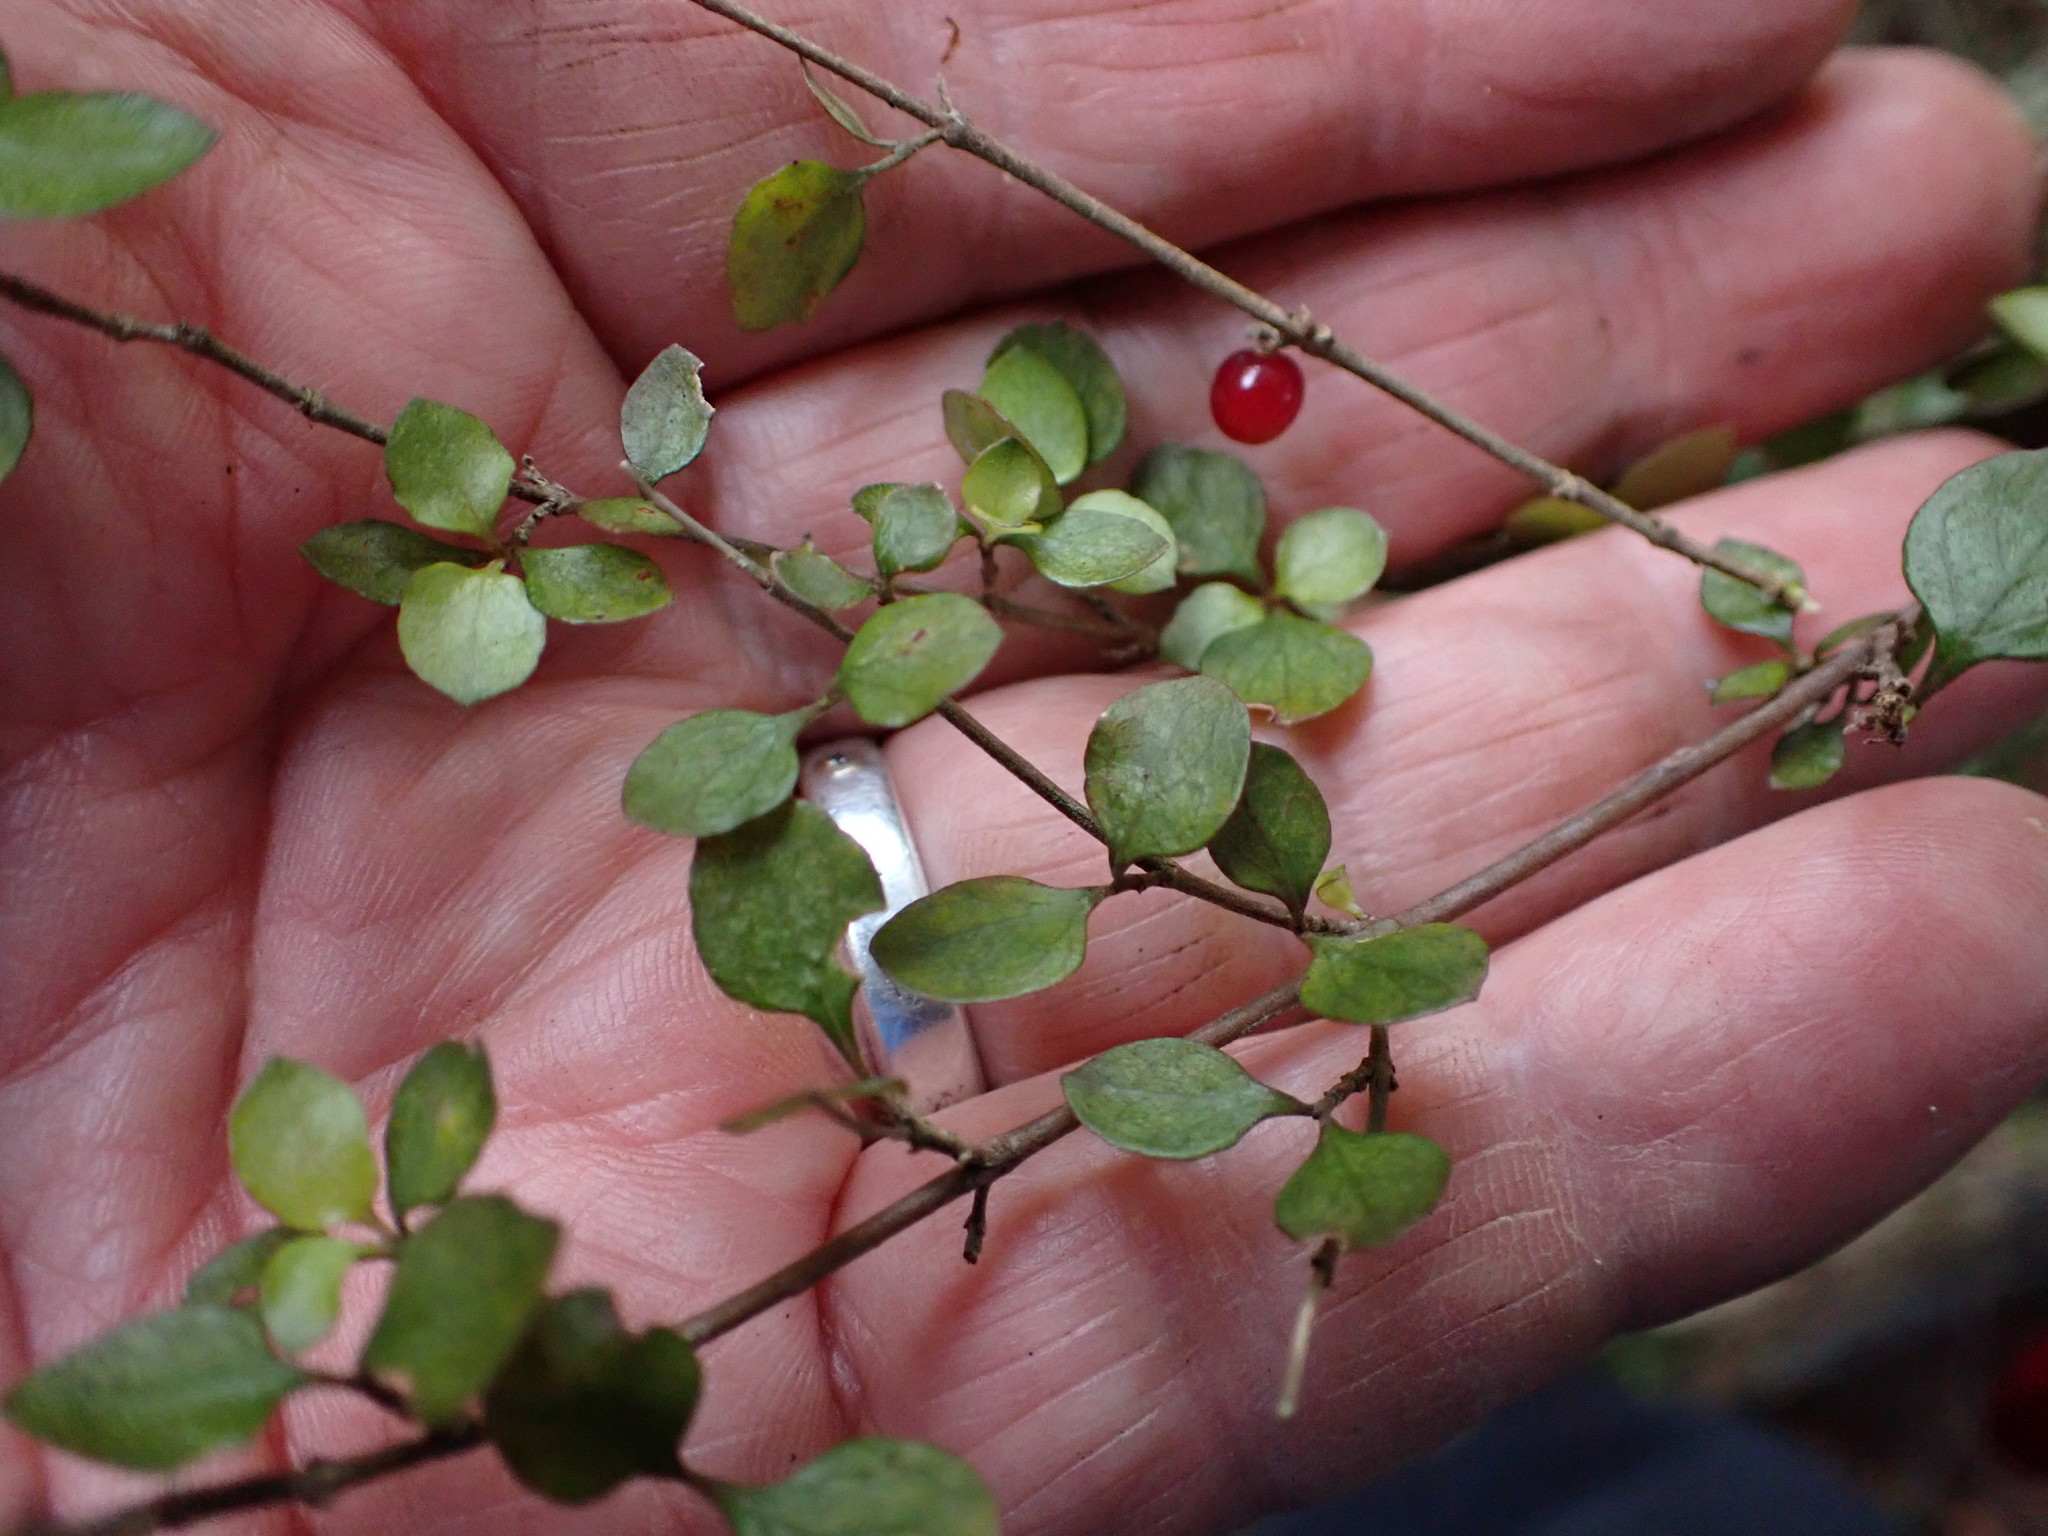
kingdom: Plantae
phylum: Tracheophyta
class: Magnoliopsida
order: Gentianales
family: Rubiaceae
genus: Coprosma
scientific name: Coprosma rhamnoides
